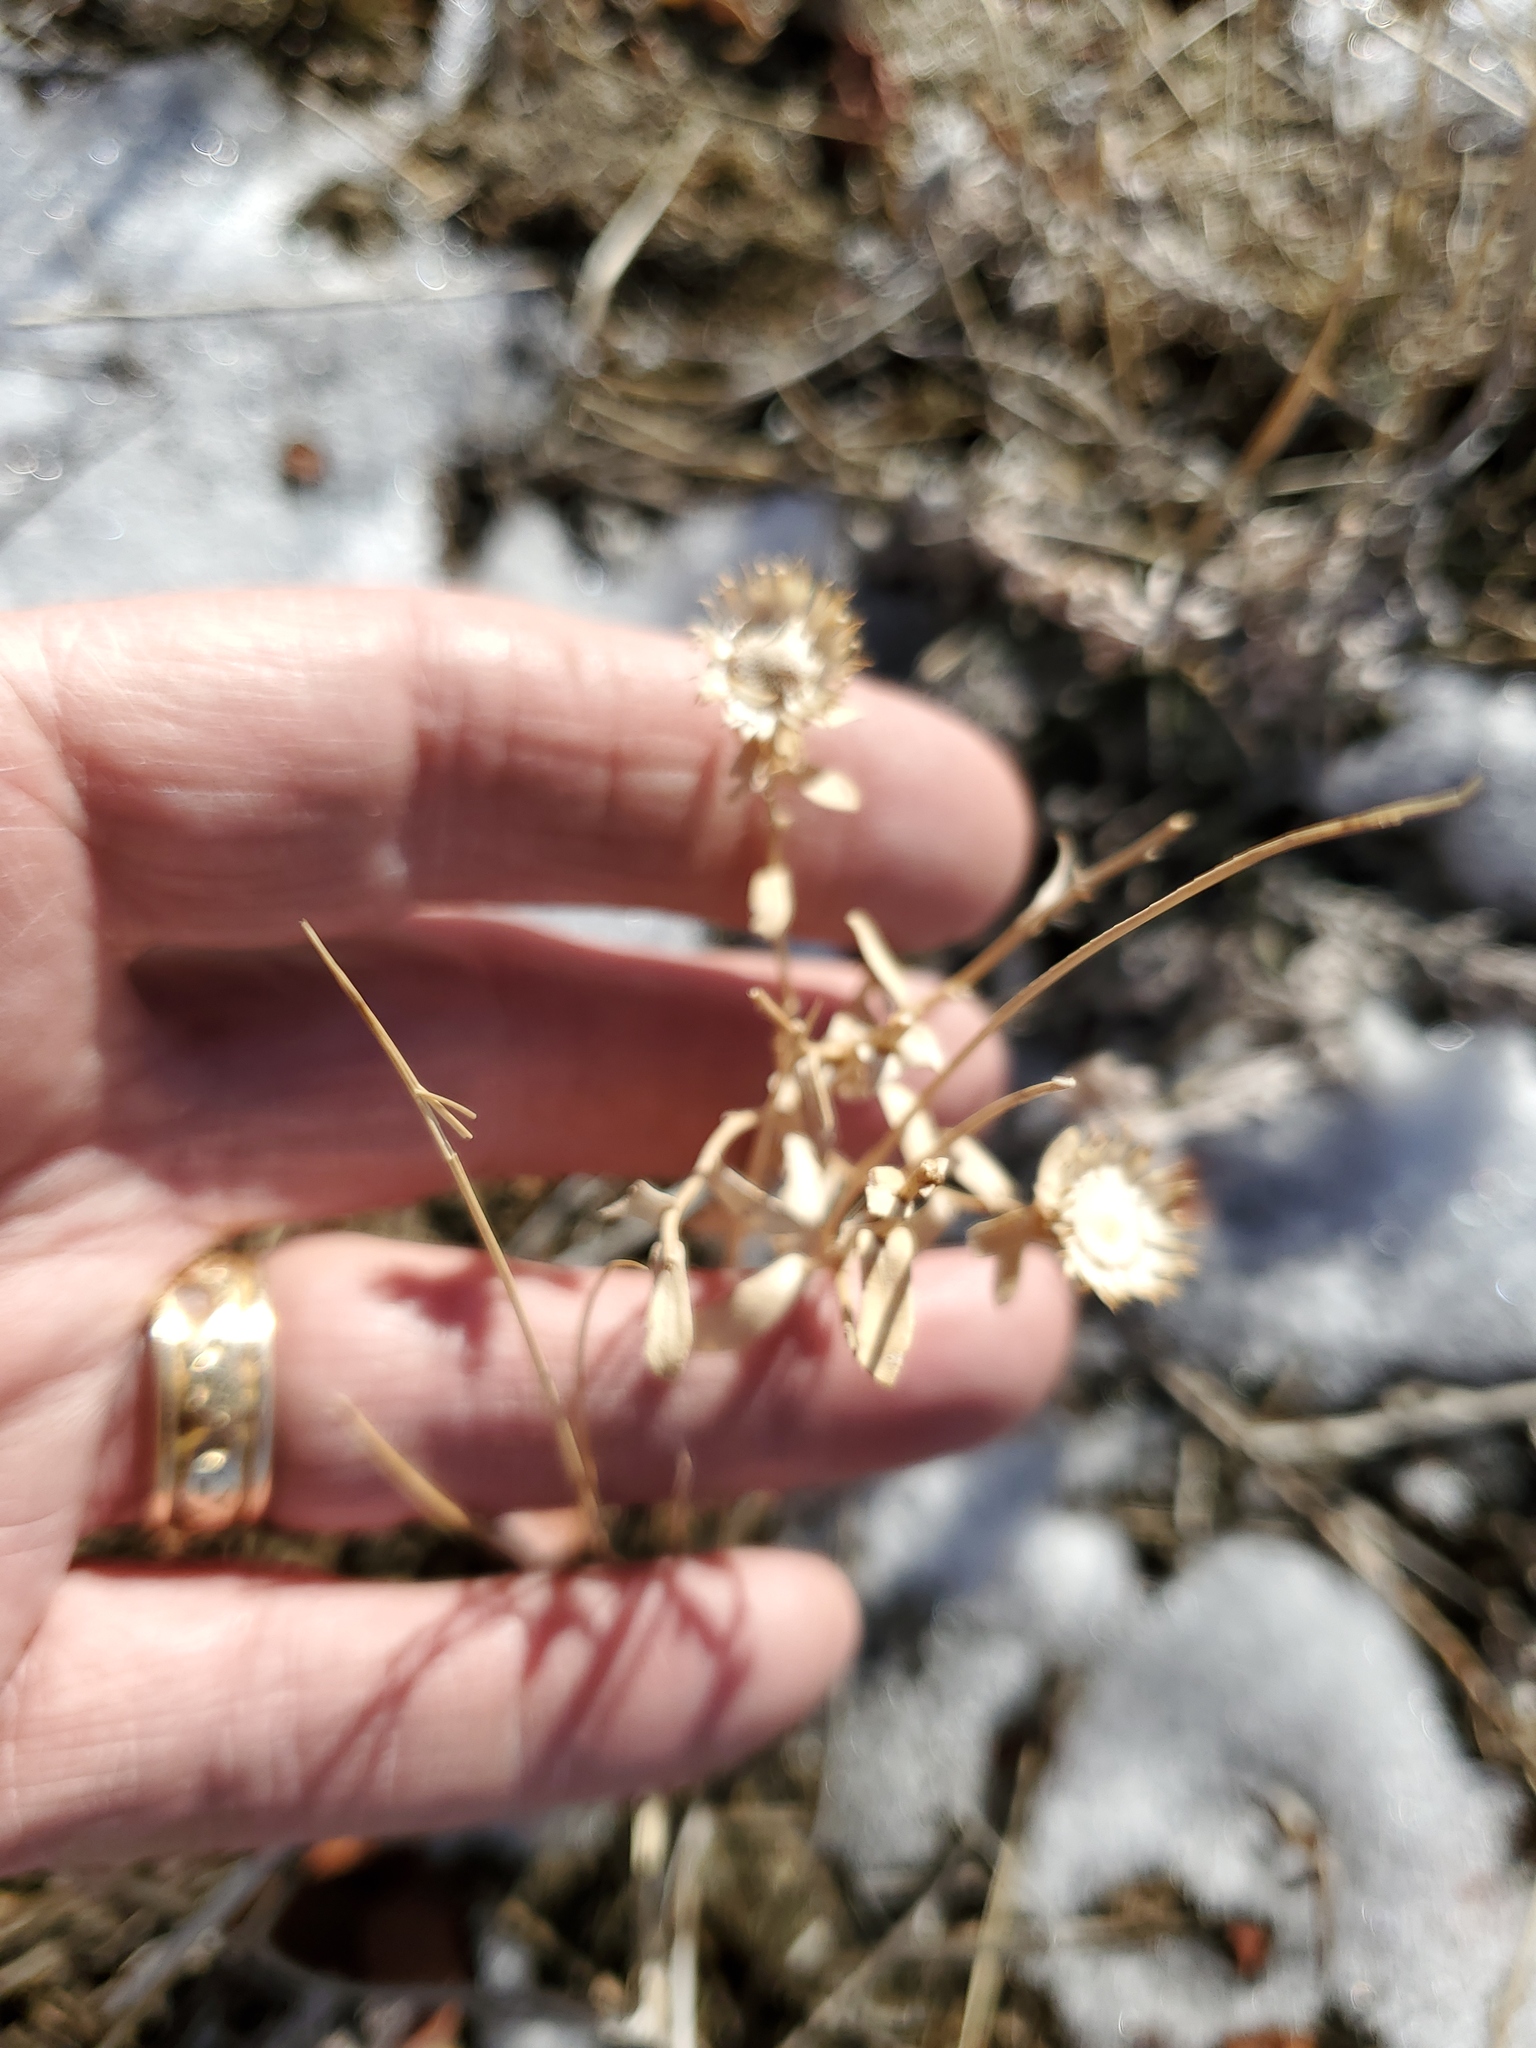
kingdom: Plantae
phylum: Tracheophyta
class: Magnoliopsida
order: Asterales
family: Asteraceae
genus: Grindelia
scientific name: Grindelia squarrosa
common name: Curly-cup gumweed
